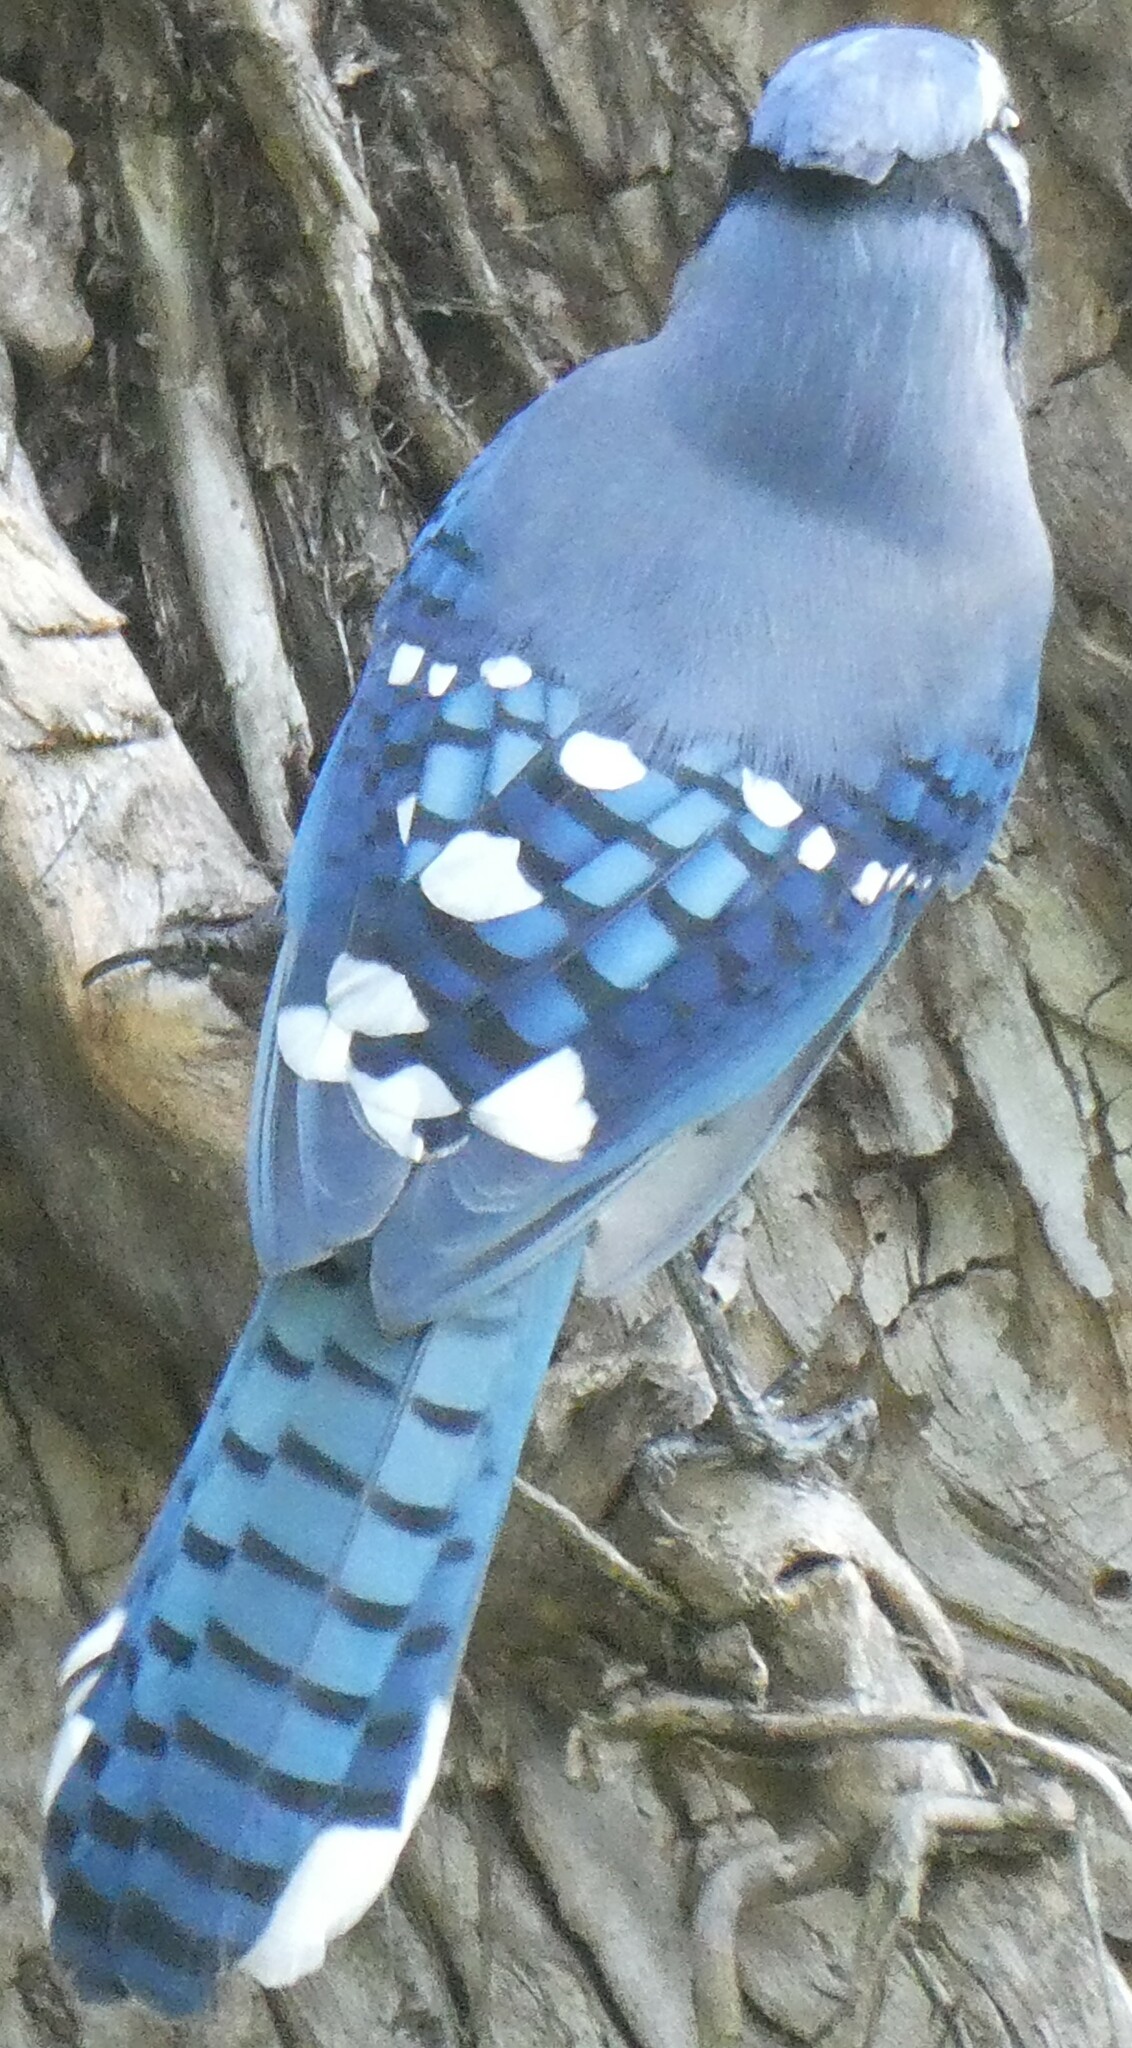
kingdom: Animalia
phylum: Chordata
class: Aves
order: Passeriformes
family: Corvidae
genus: Cyanocitta
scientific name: Cyanocitta cristata
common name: Blue jay
